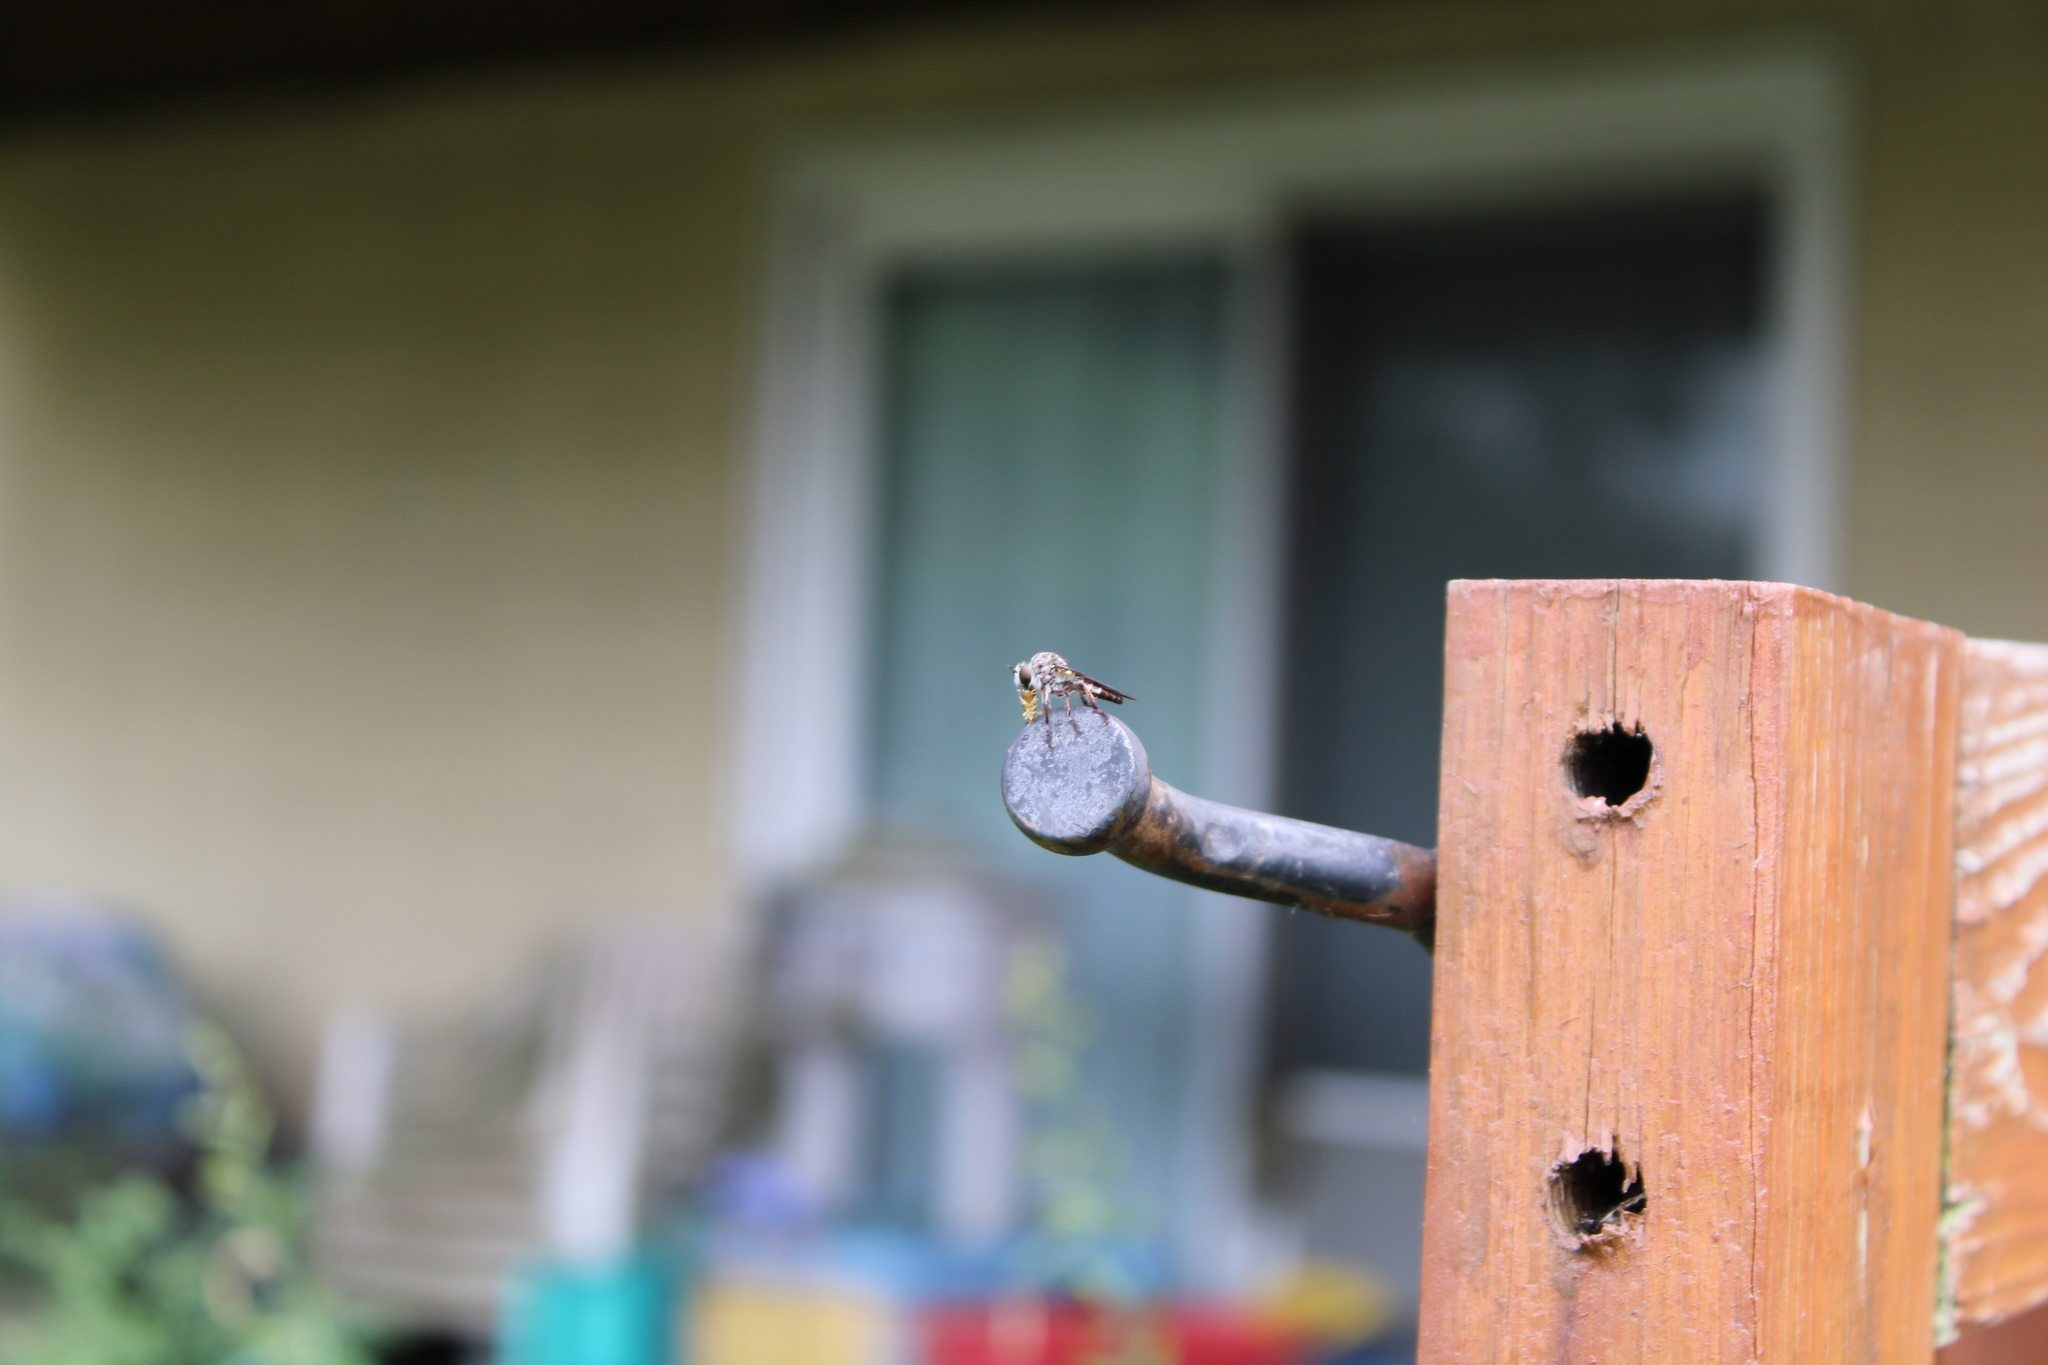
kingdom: Animalia
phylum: Arthropoda
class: Insecta
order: Diptera
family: Asilidae
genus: Heteropogon
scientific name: Heteropogon macerinus
